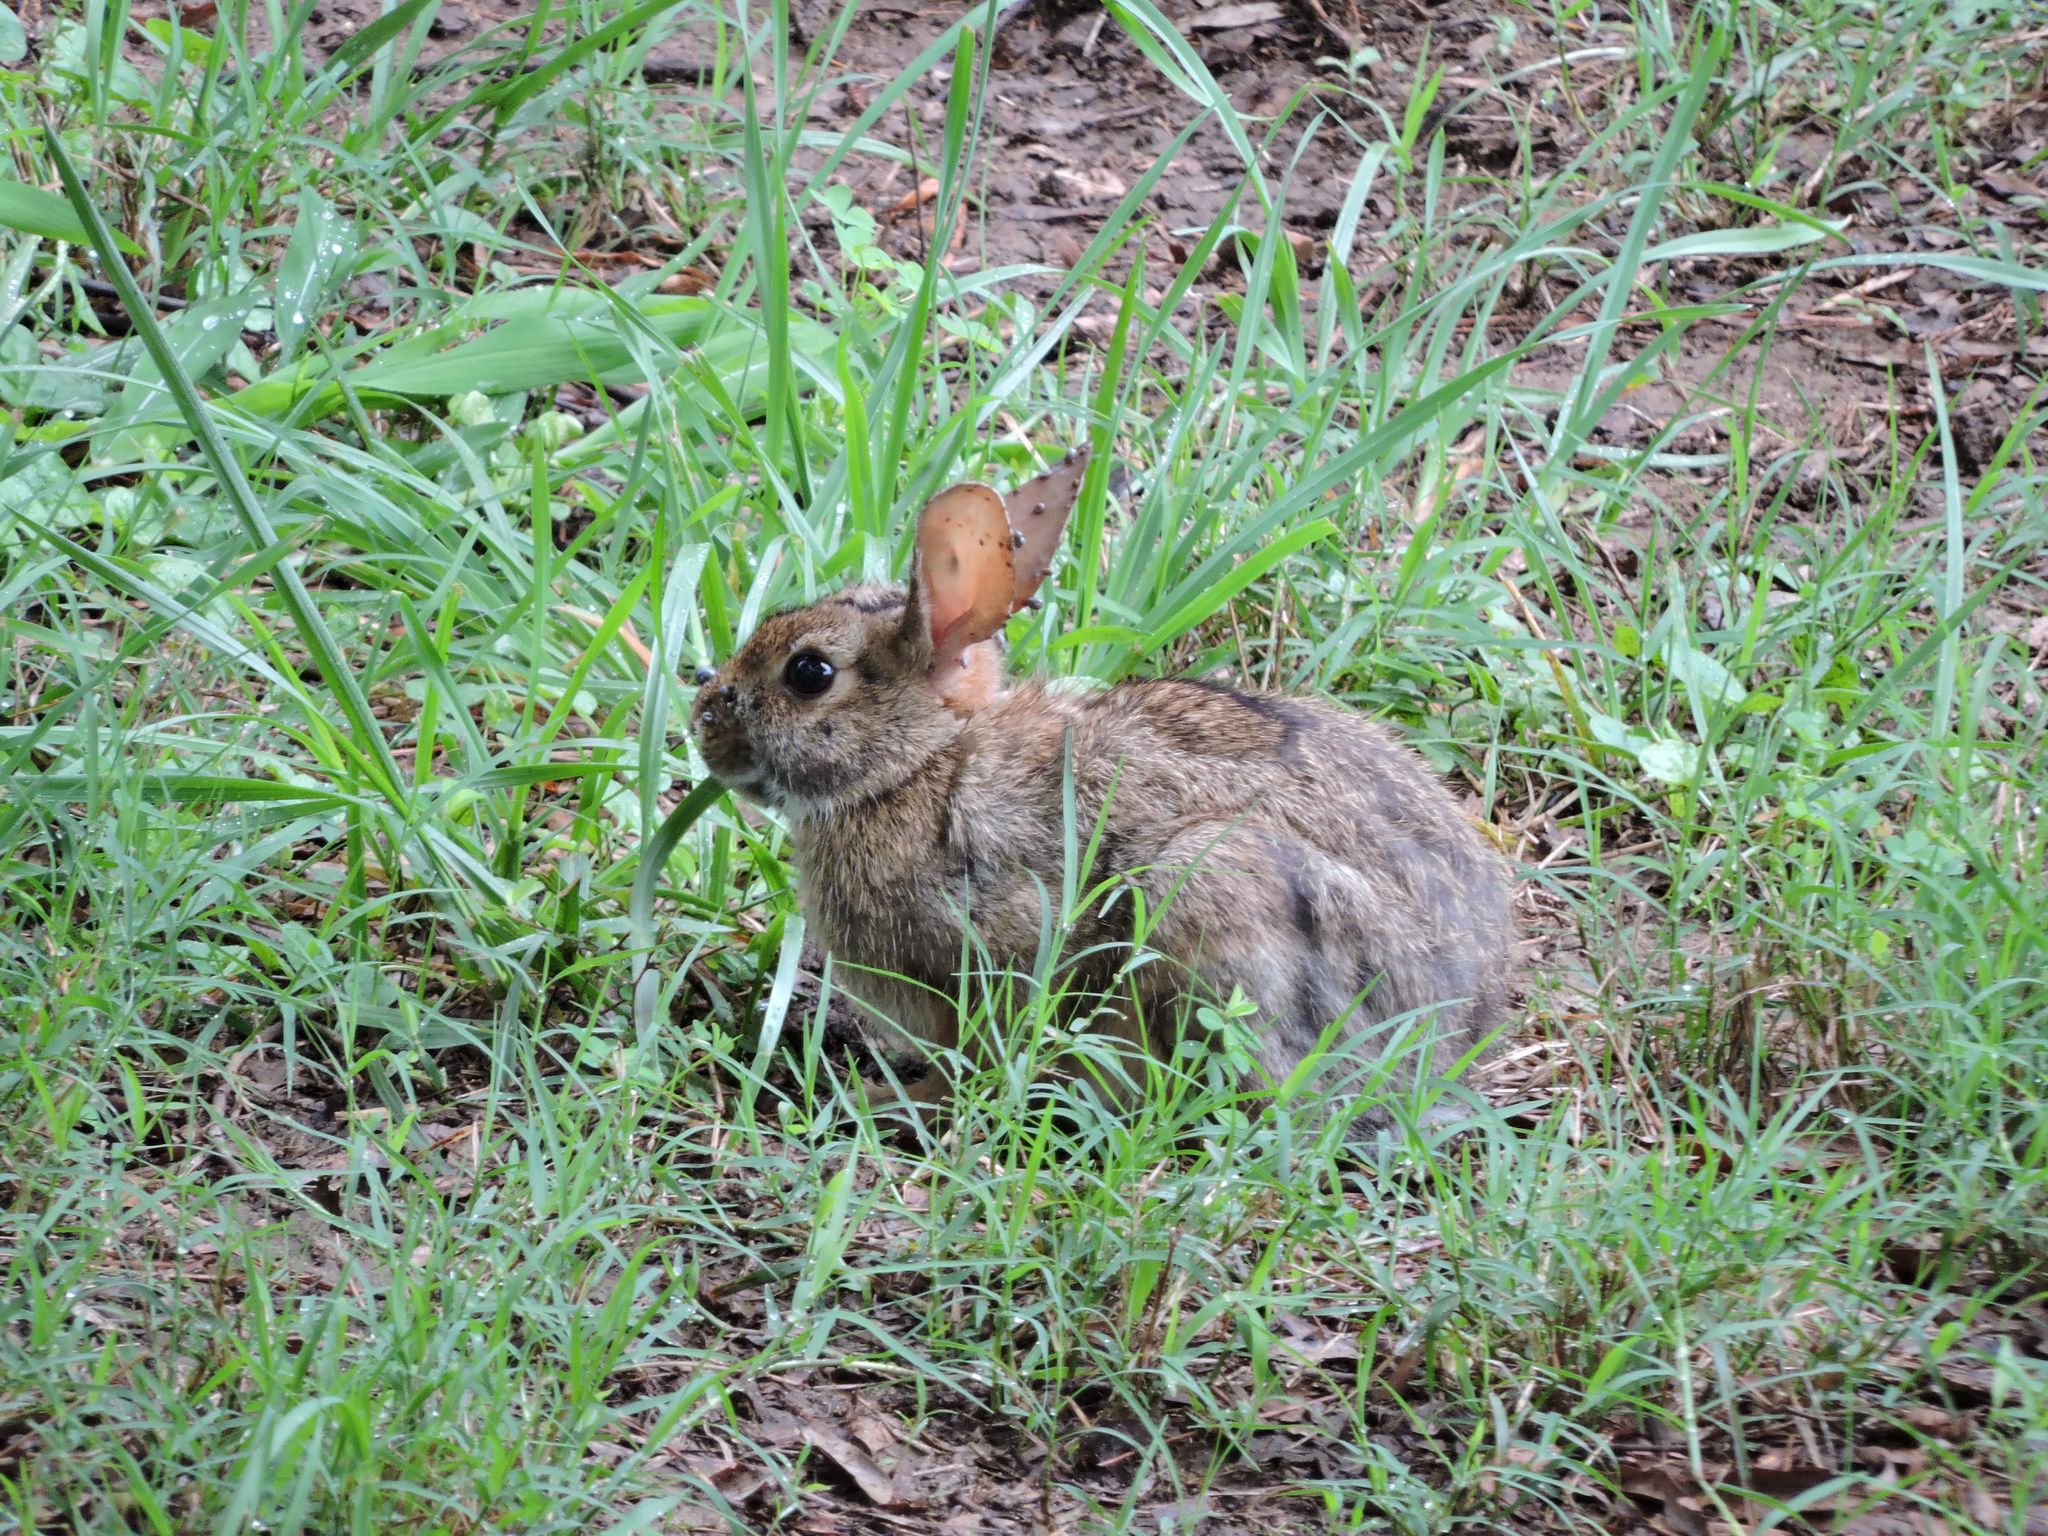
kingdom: Animalia
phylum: Chordata
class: Mammalia
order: Lagomorpha
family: Leporidae
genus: Sylvilagus
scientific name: Sylvilagus floridanus
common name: Eastern cottontail
